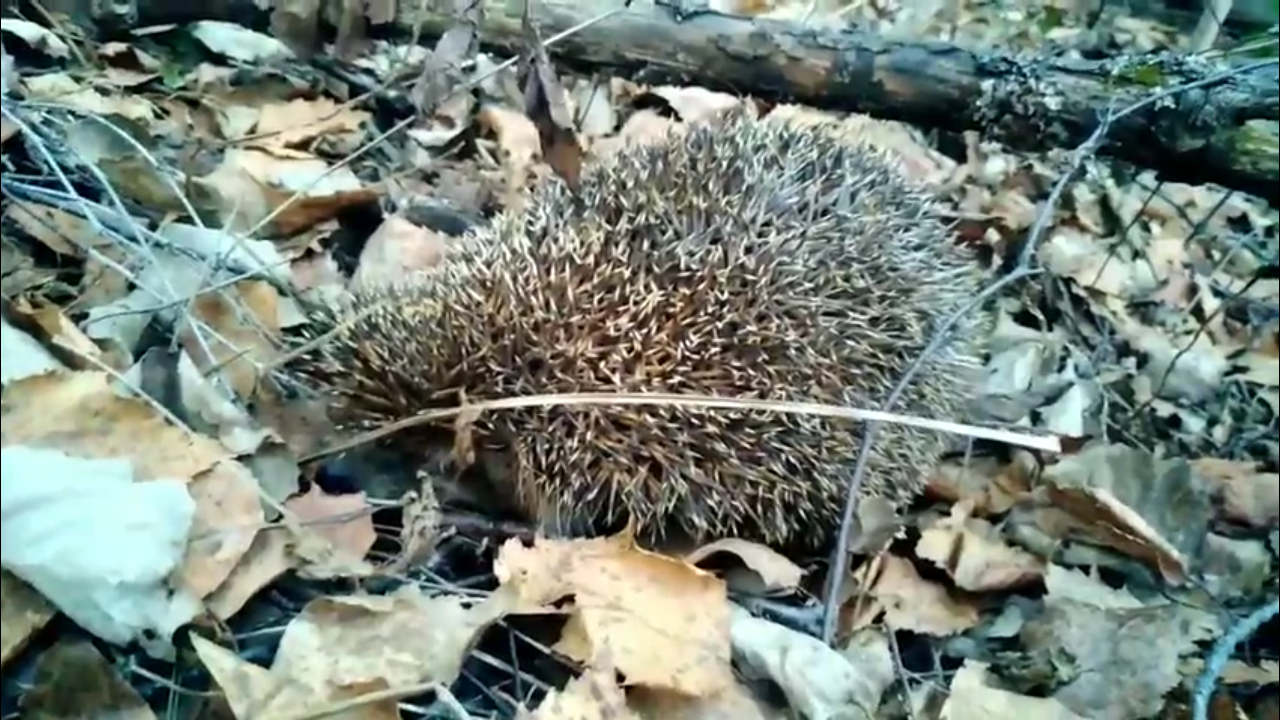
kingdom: Animalia
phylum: Chordata
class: Mammalia
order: Erinaceomorpha
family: Erinaceidae
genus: Erinaceus
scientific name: Erinaceus roumanicus
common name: Northern white-breasted hedgehog
